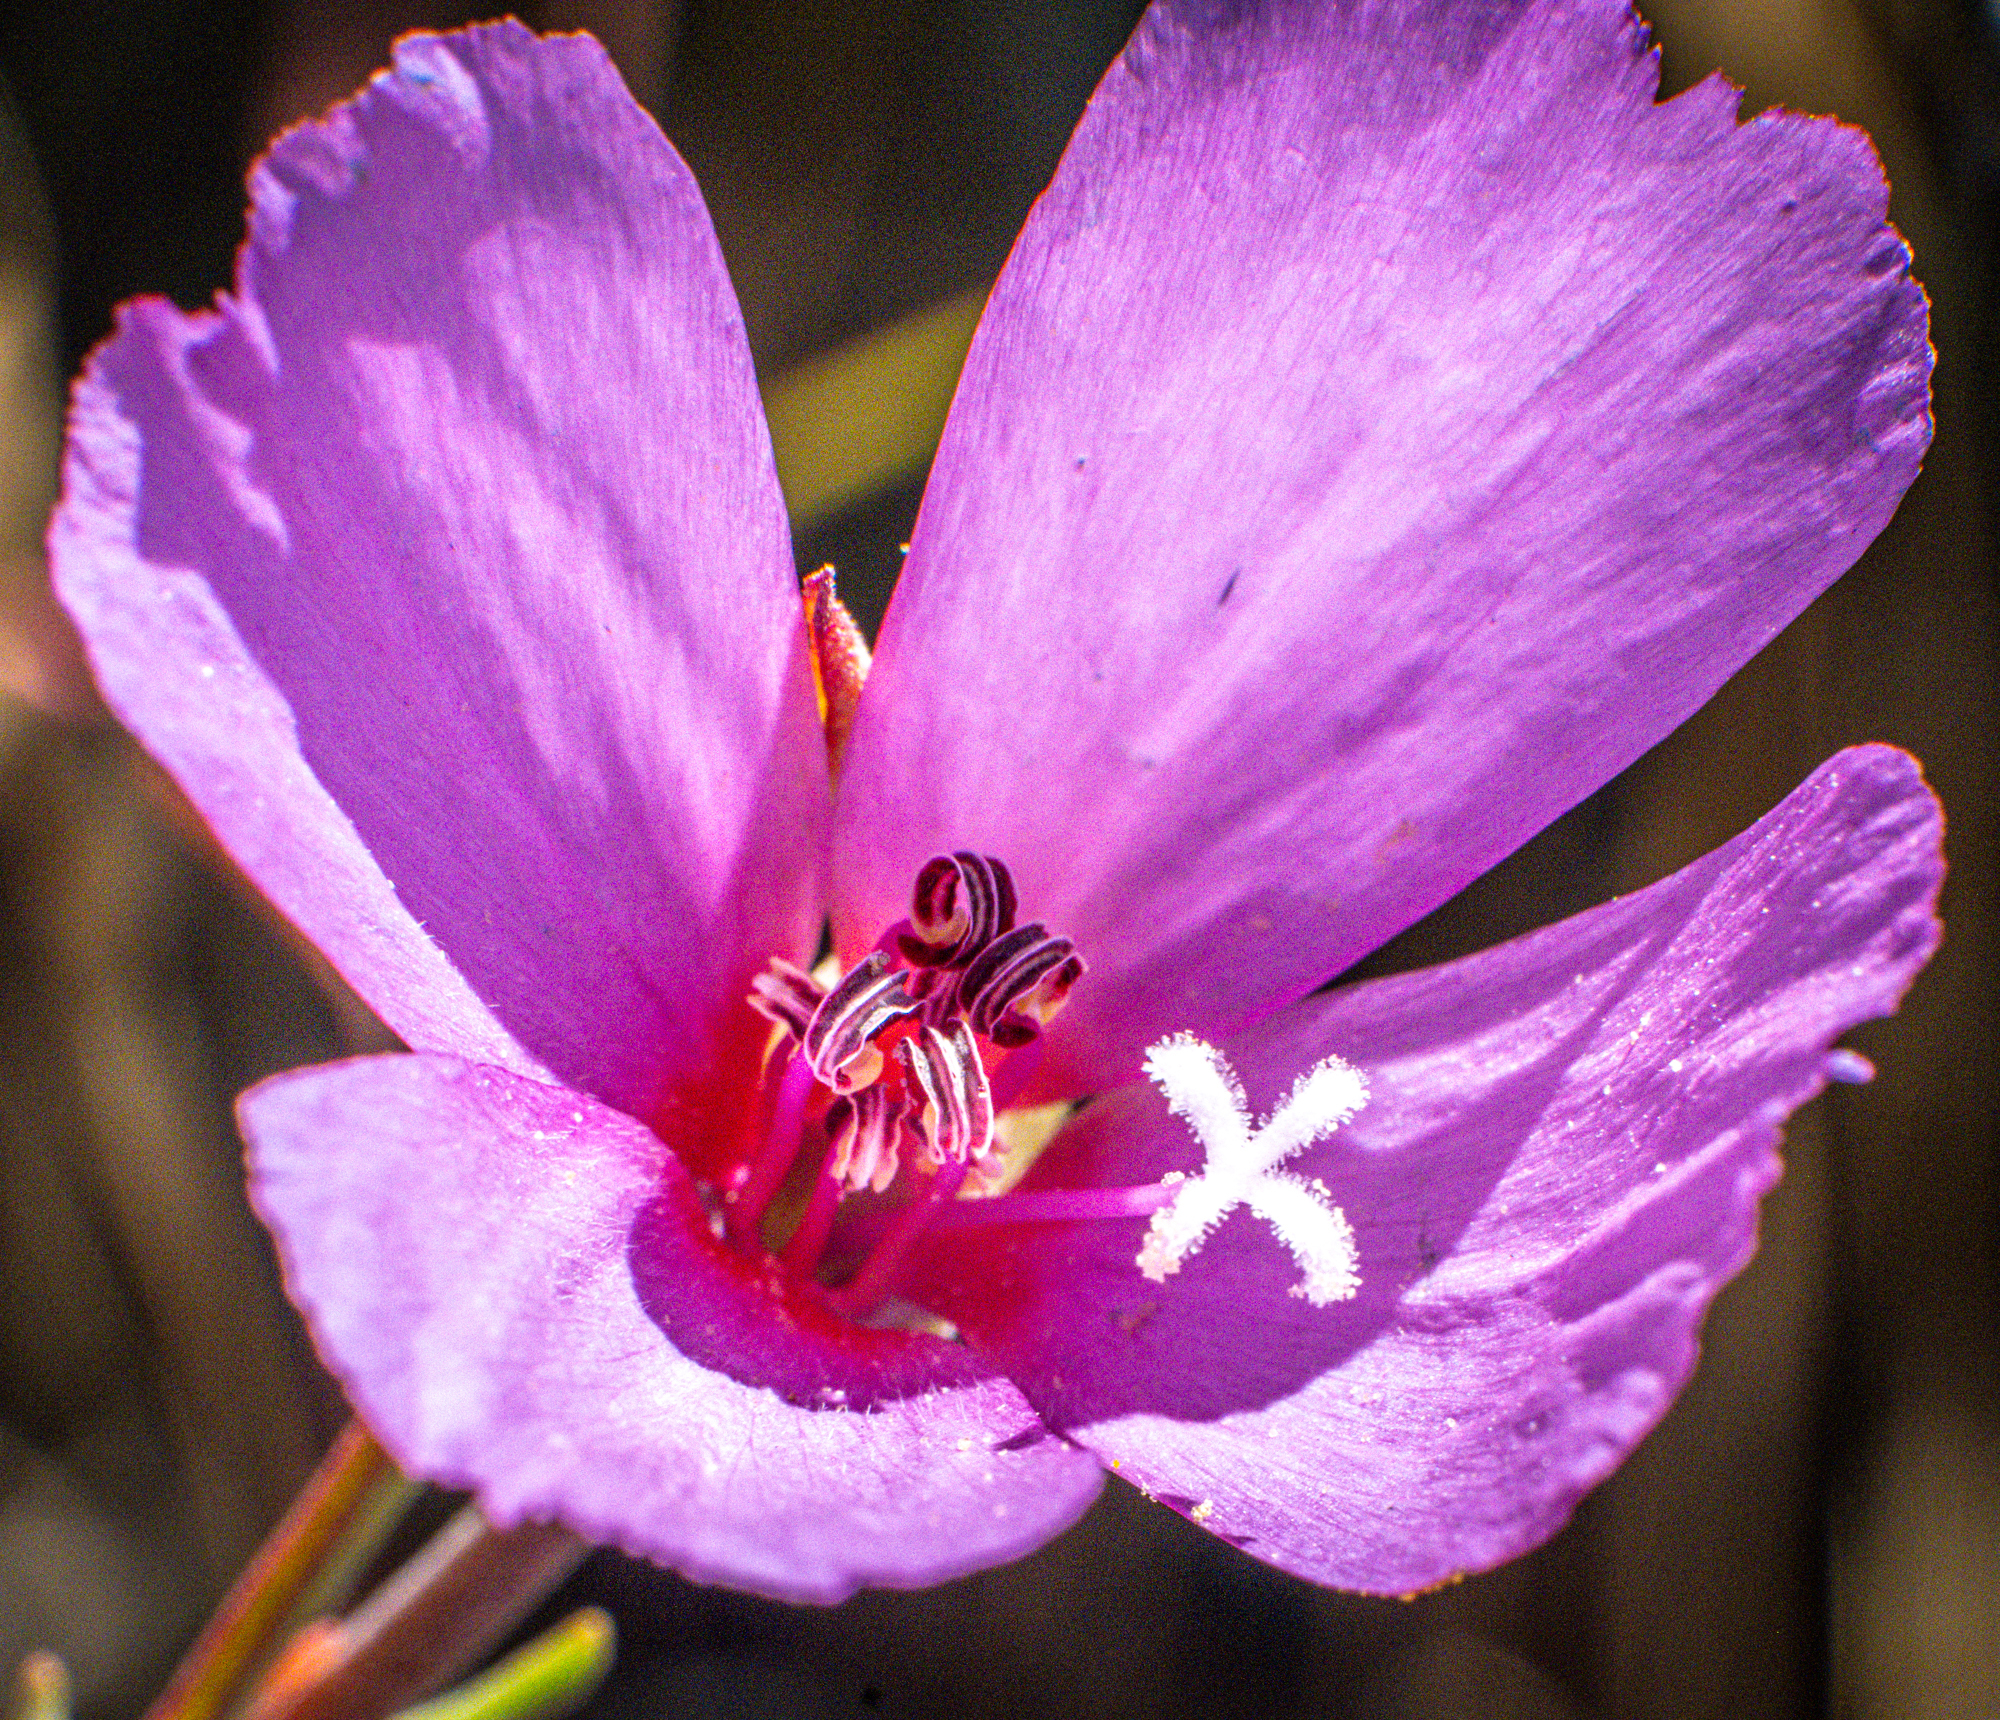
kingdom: Plantae
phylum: Tracheophyta
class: Magnoliopsida
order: Myrtales
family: Onagraceae
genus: Clarkia
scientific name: Clarkia rubicunda
